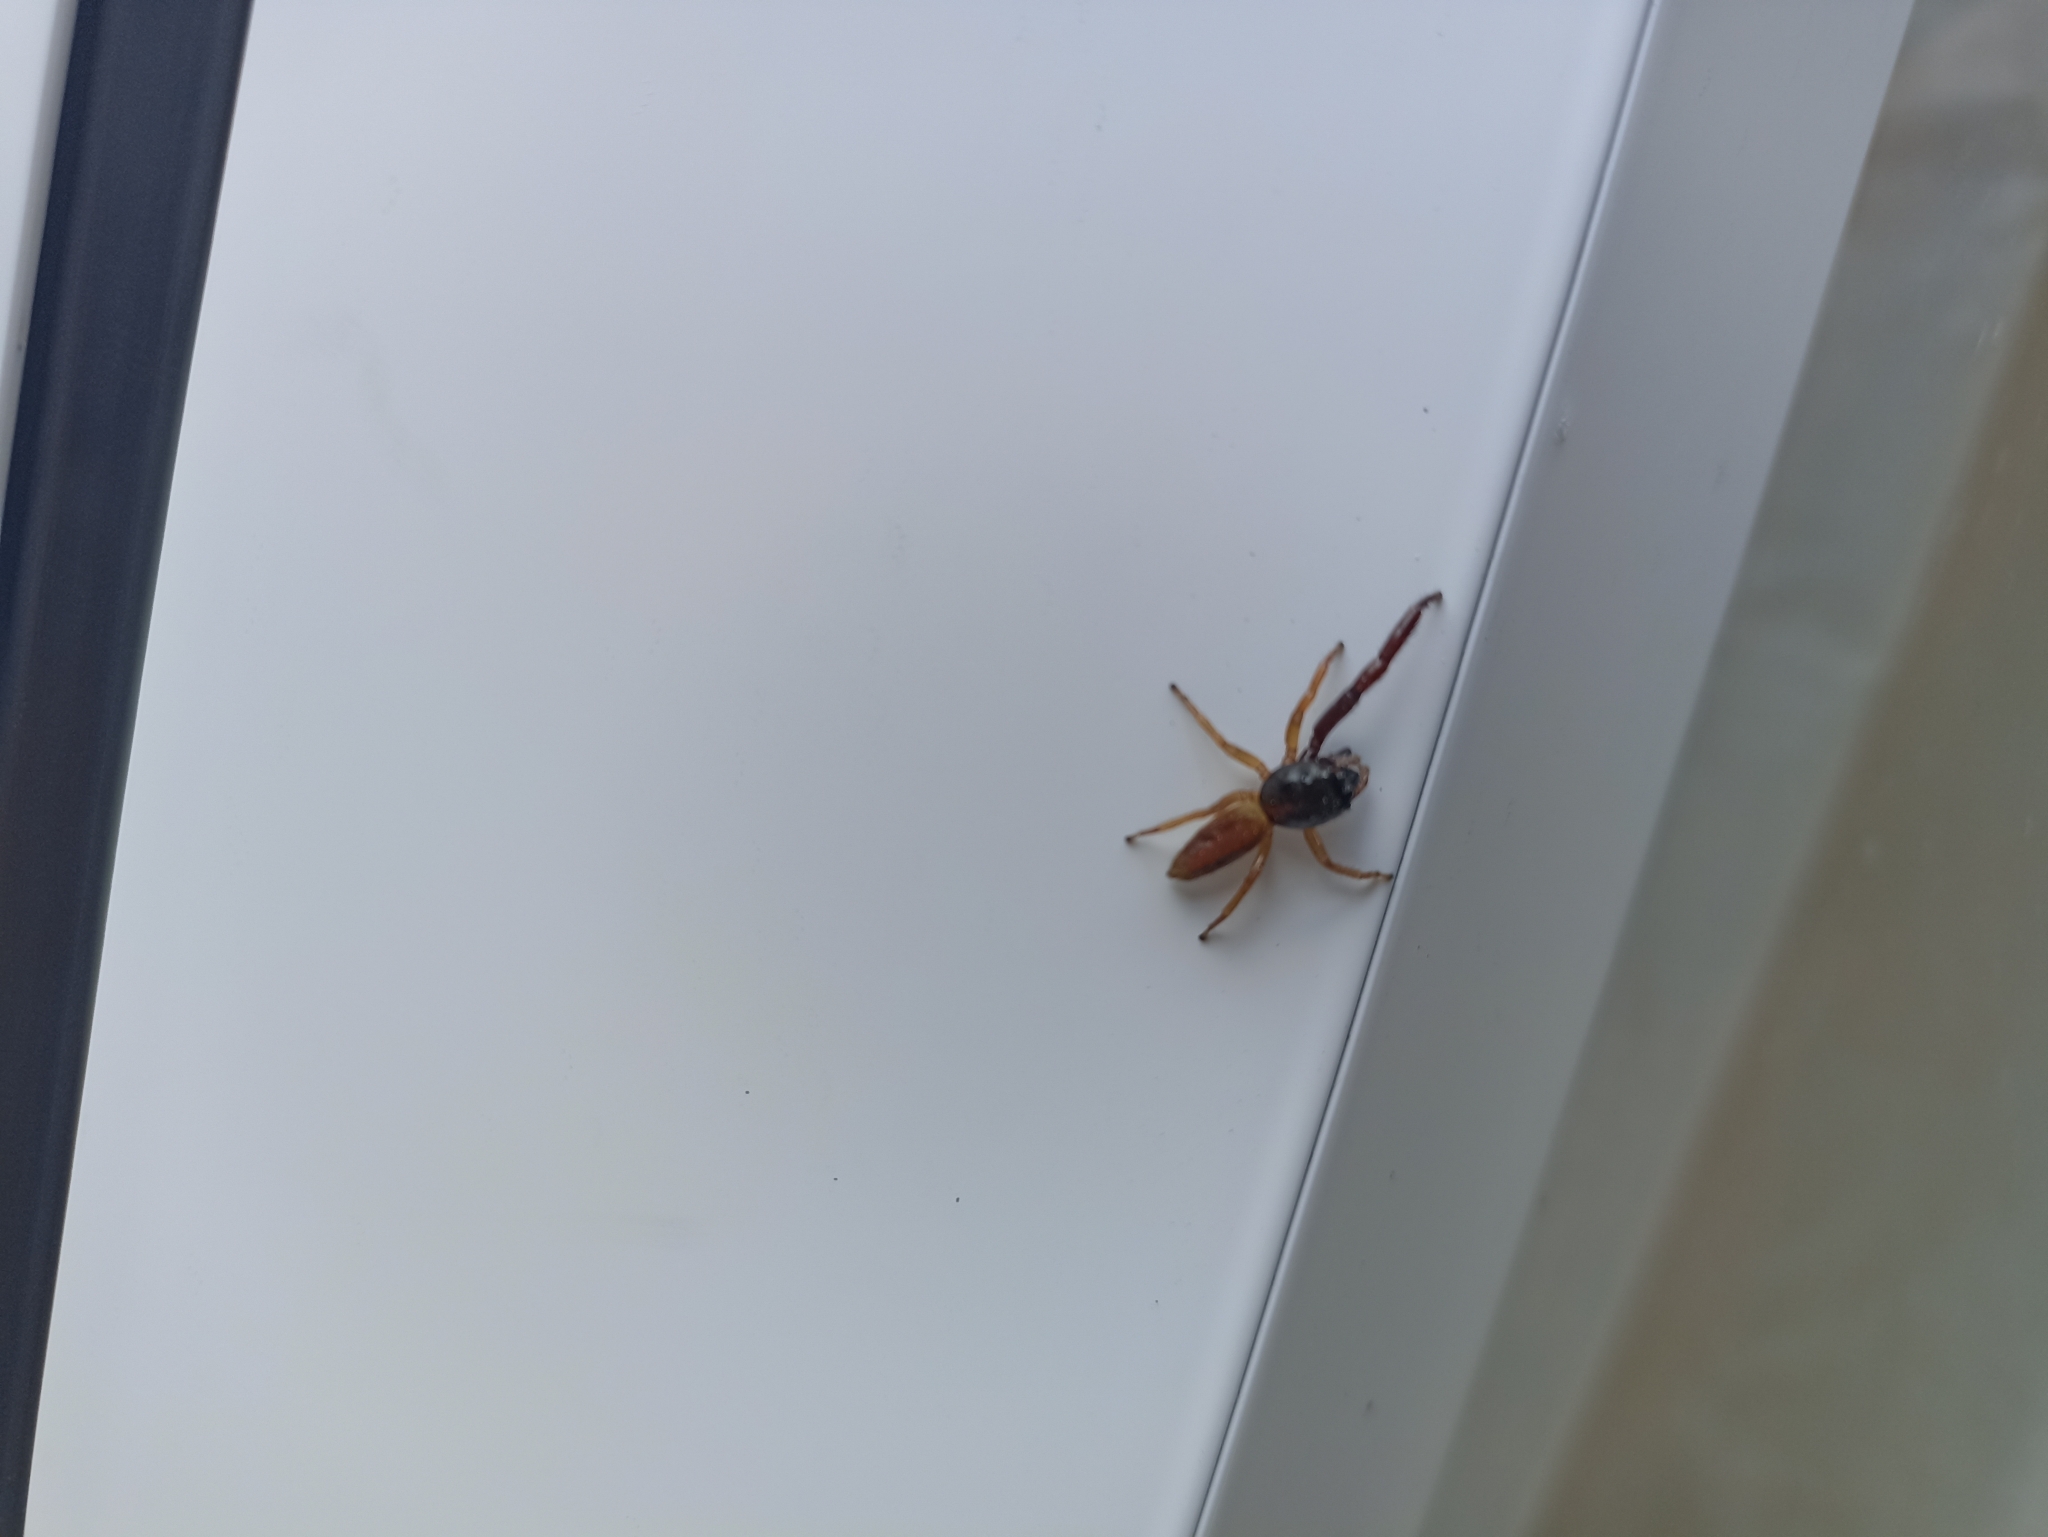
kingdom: Animalia
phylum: Arthropoda
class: Arachnida
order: Araneae
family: Salticidae
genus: Trite
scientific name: Trite planiceps
